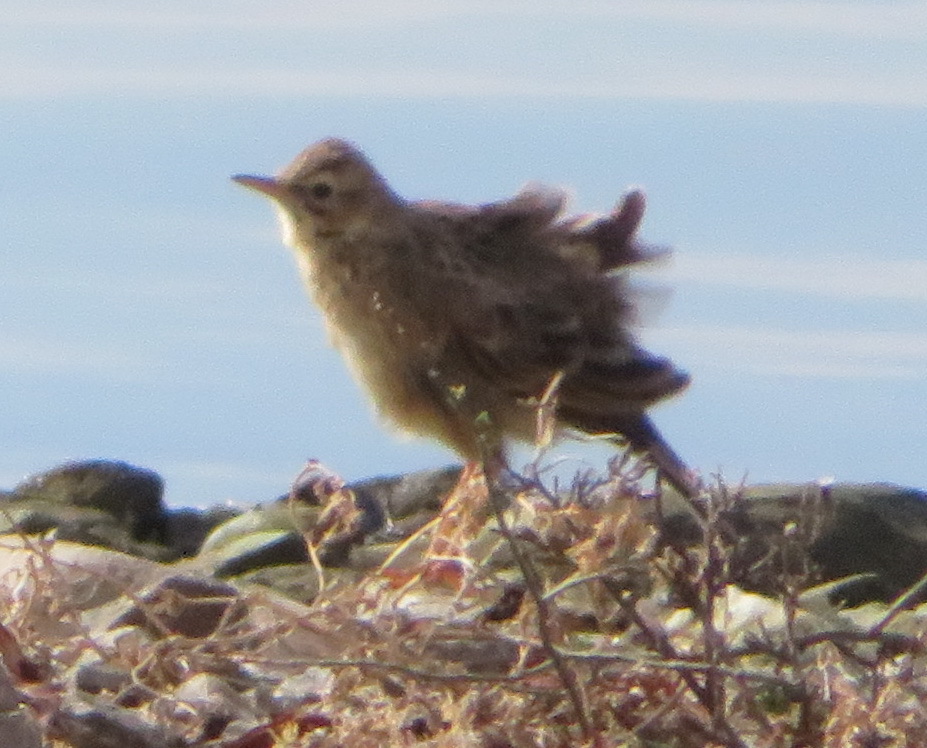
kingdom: Animalia
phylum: Chordata
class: Aves
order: Passeriformes
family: Motacillidae
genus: Anthus
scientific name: Anthus cinnamomeus
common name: African pipit
